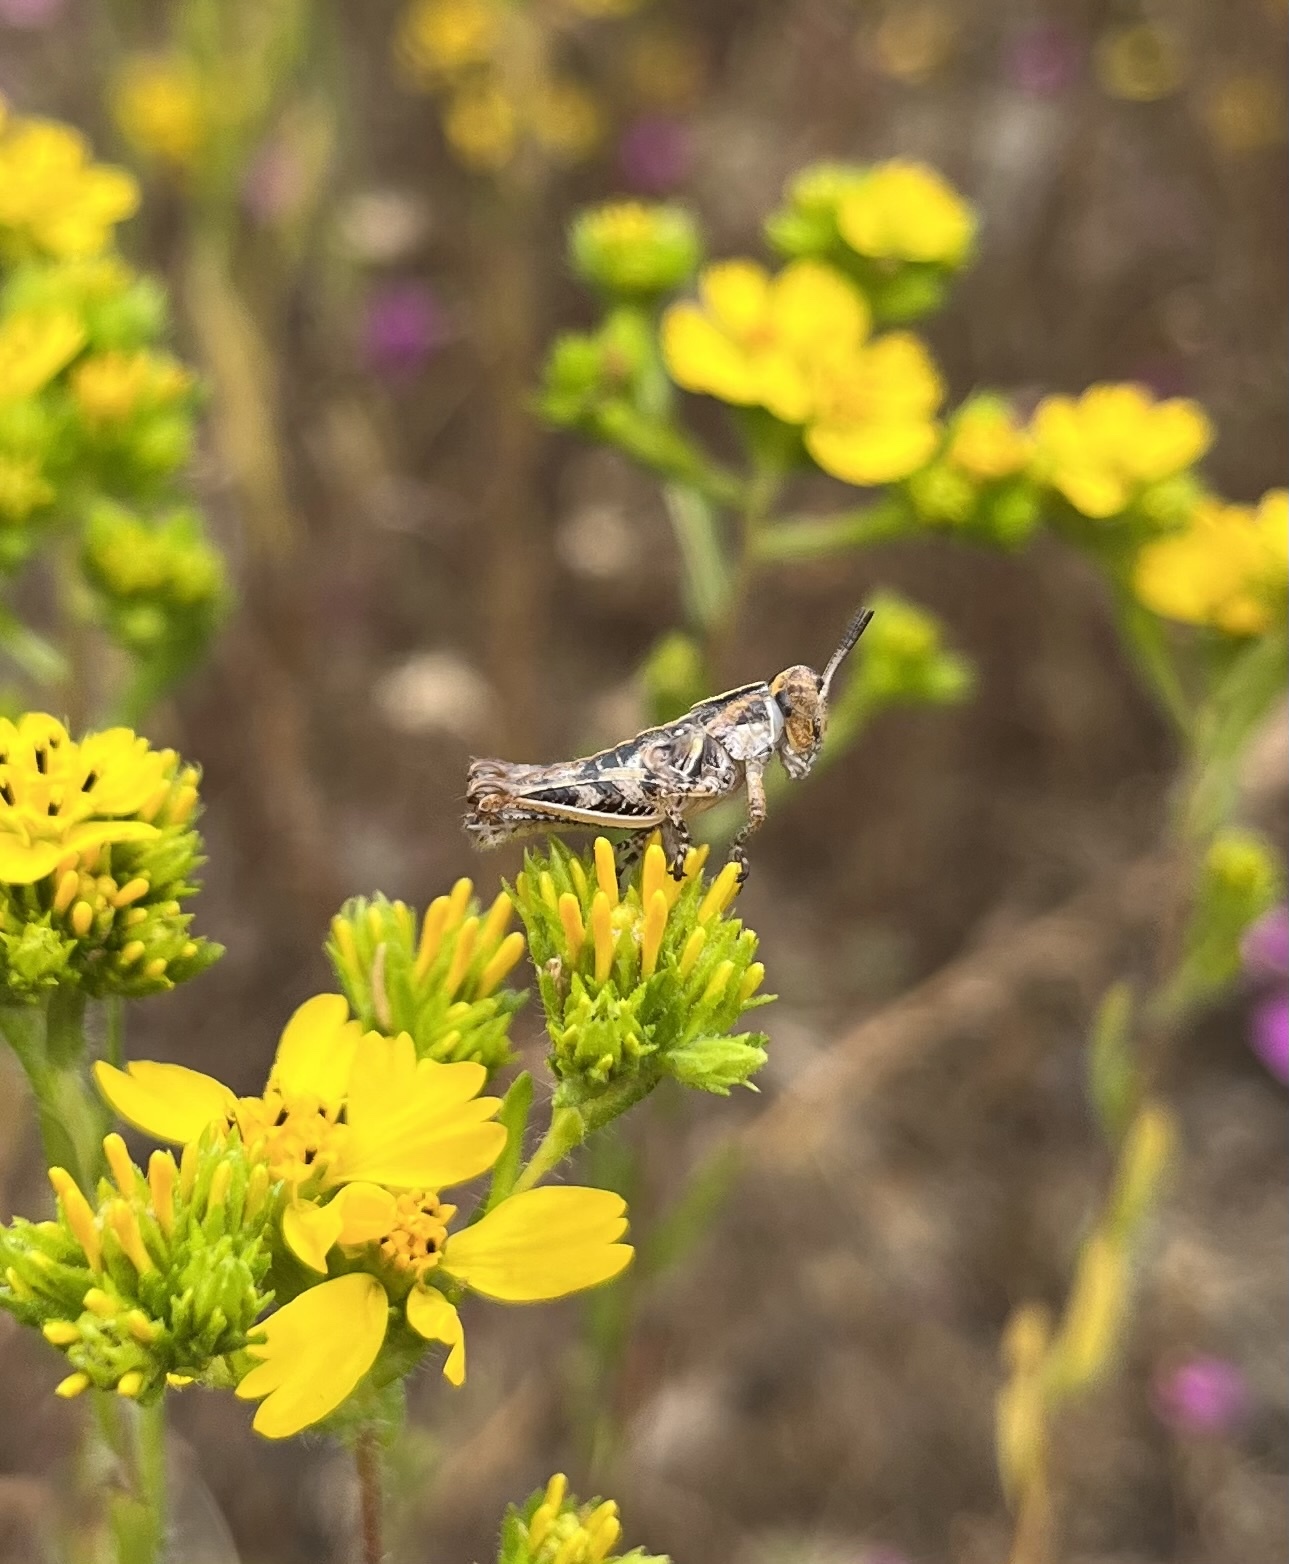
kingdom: Animalia
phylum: Arthropoda
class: Insecta
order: Orthoptera
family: Acrididae
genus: Oedaleonotus
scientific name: Oedaleonotus enigma
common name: Valley grasshopper
